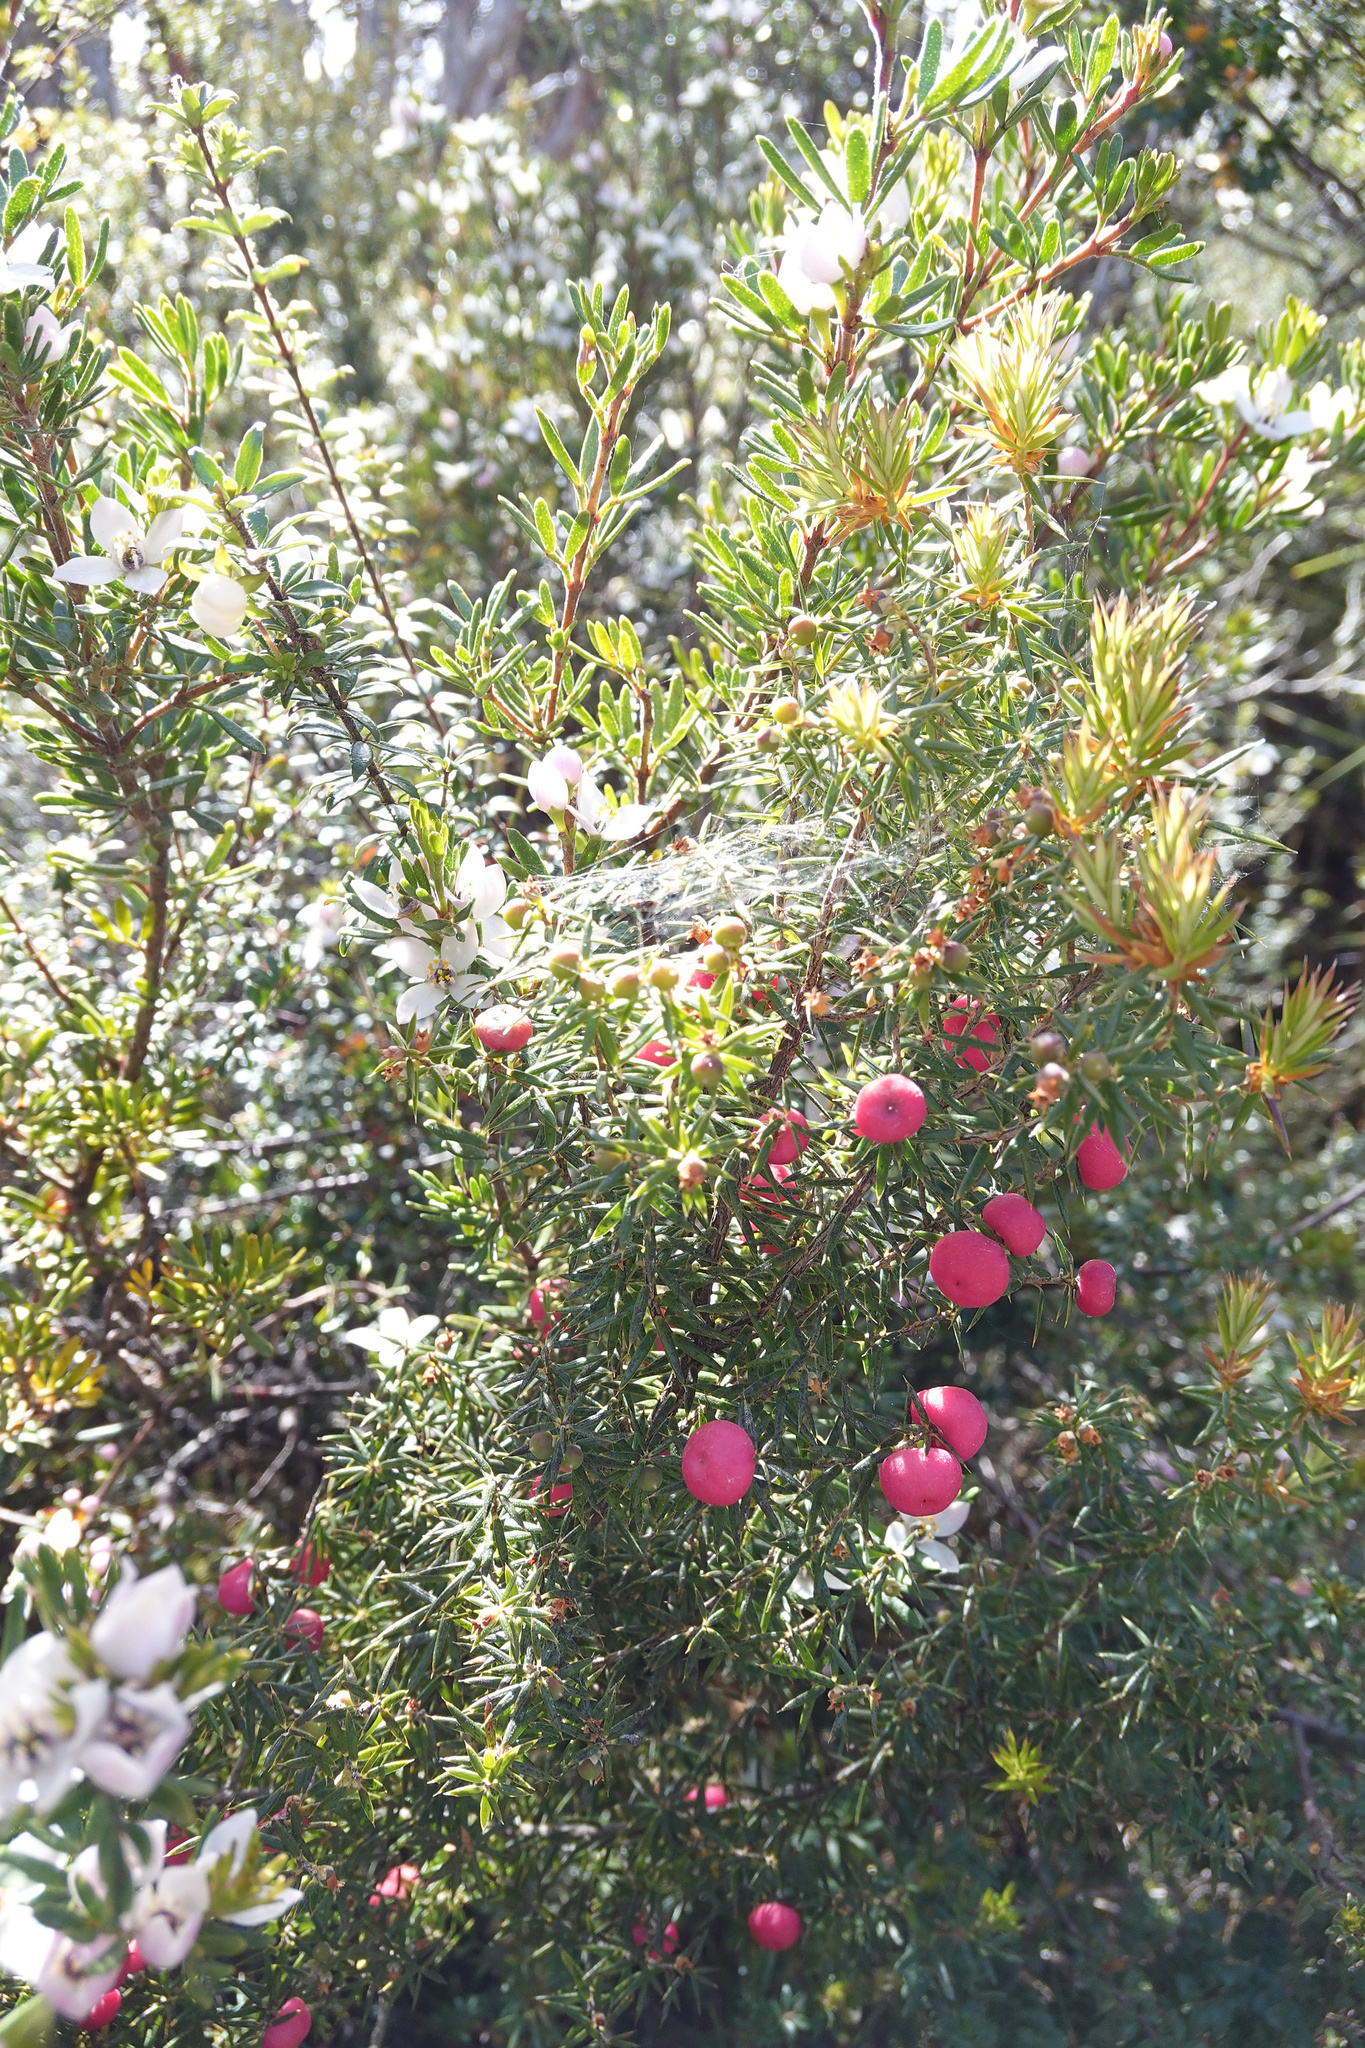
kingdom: Plantae
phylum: Tracheophyta
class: Magnoliopsida
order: Ericales
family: Ericaceae
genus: Leptecophylla
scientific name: Leptecophylla parvifolia
